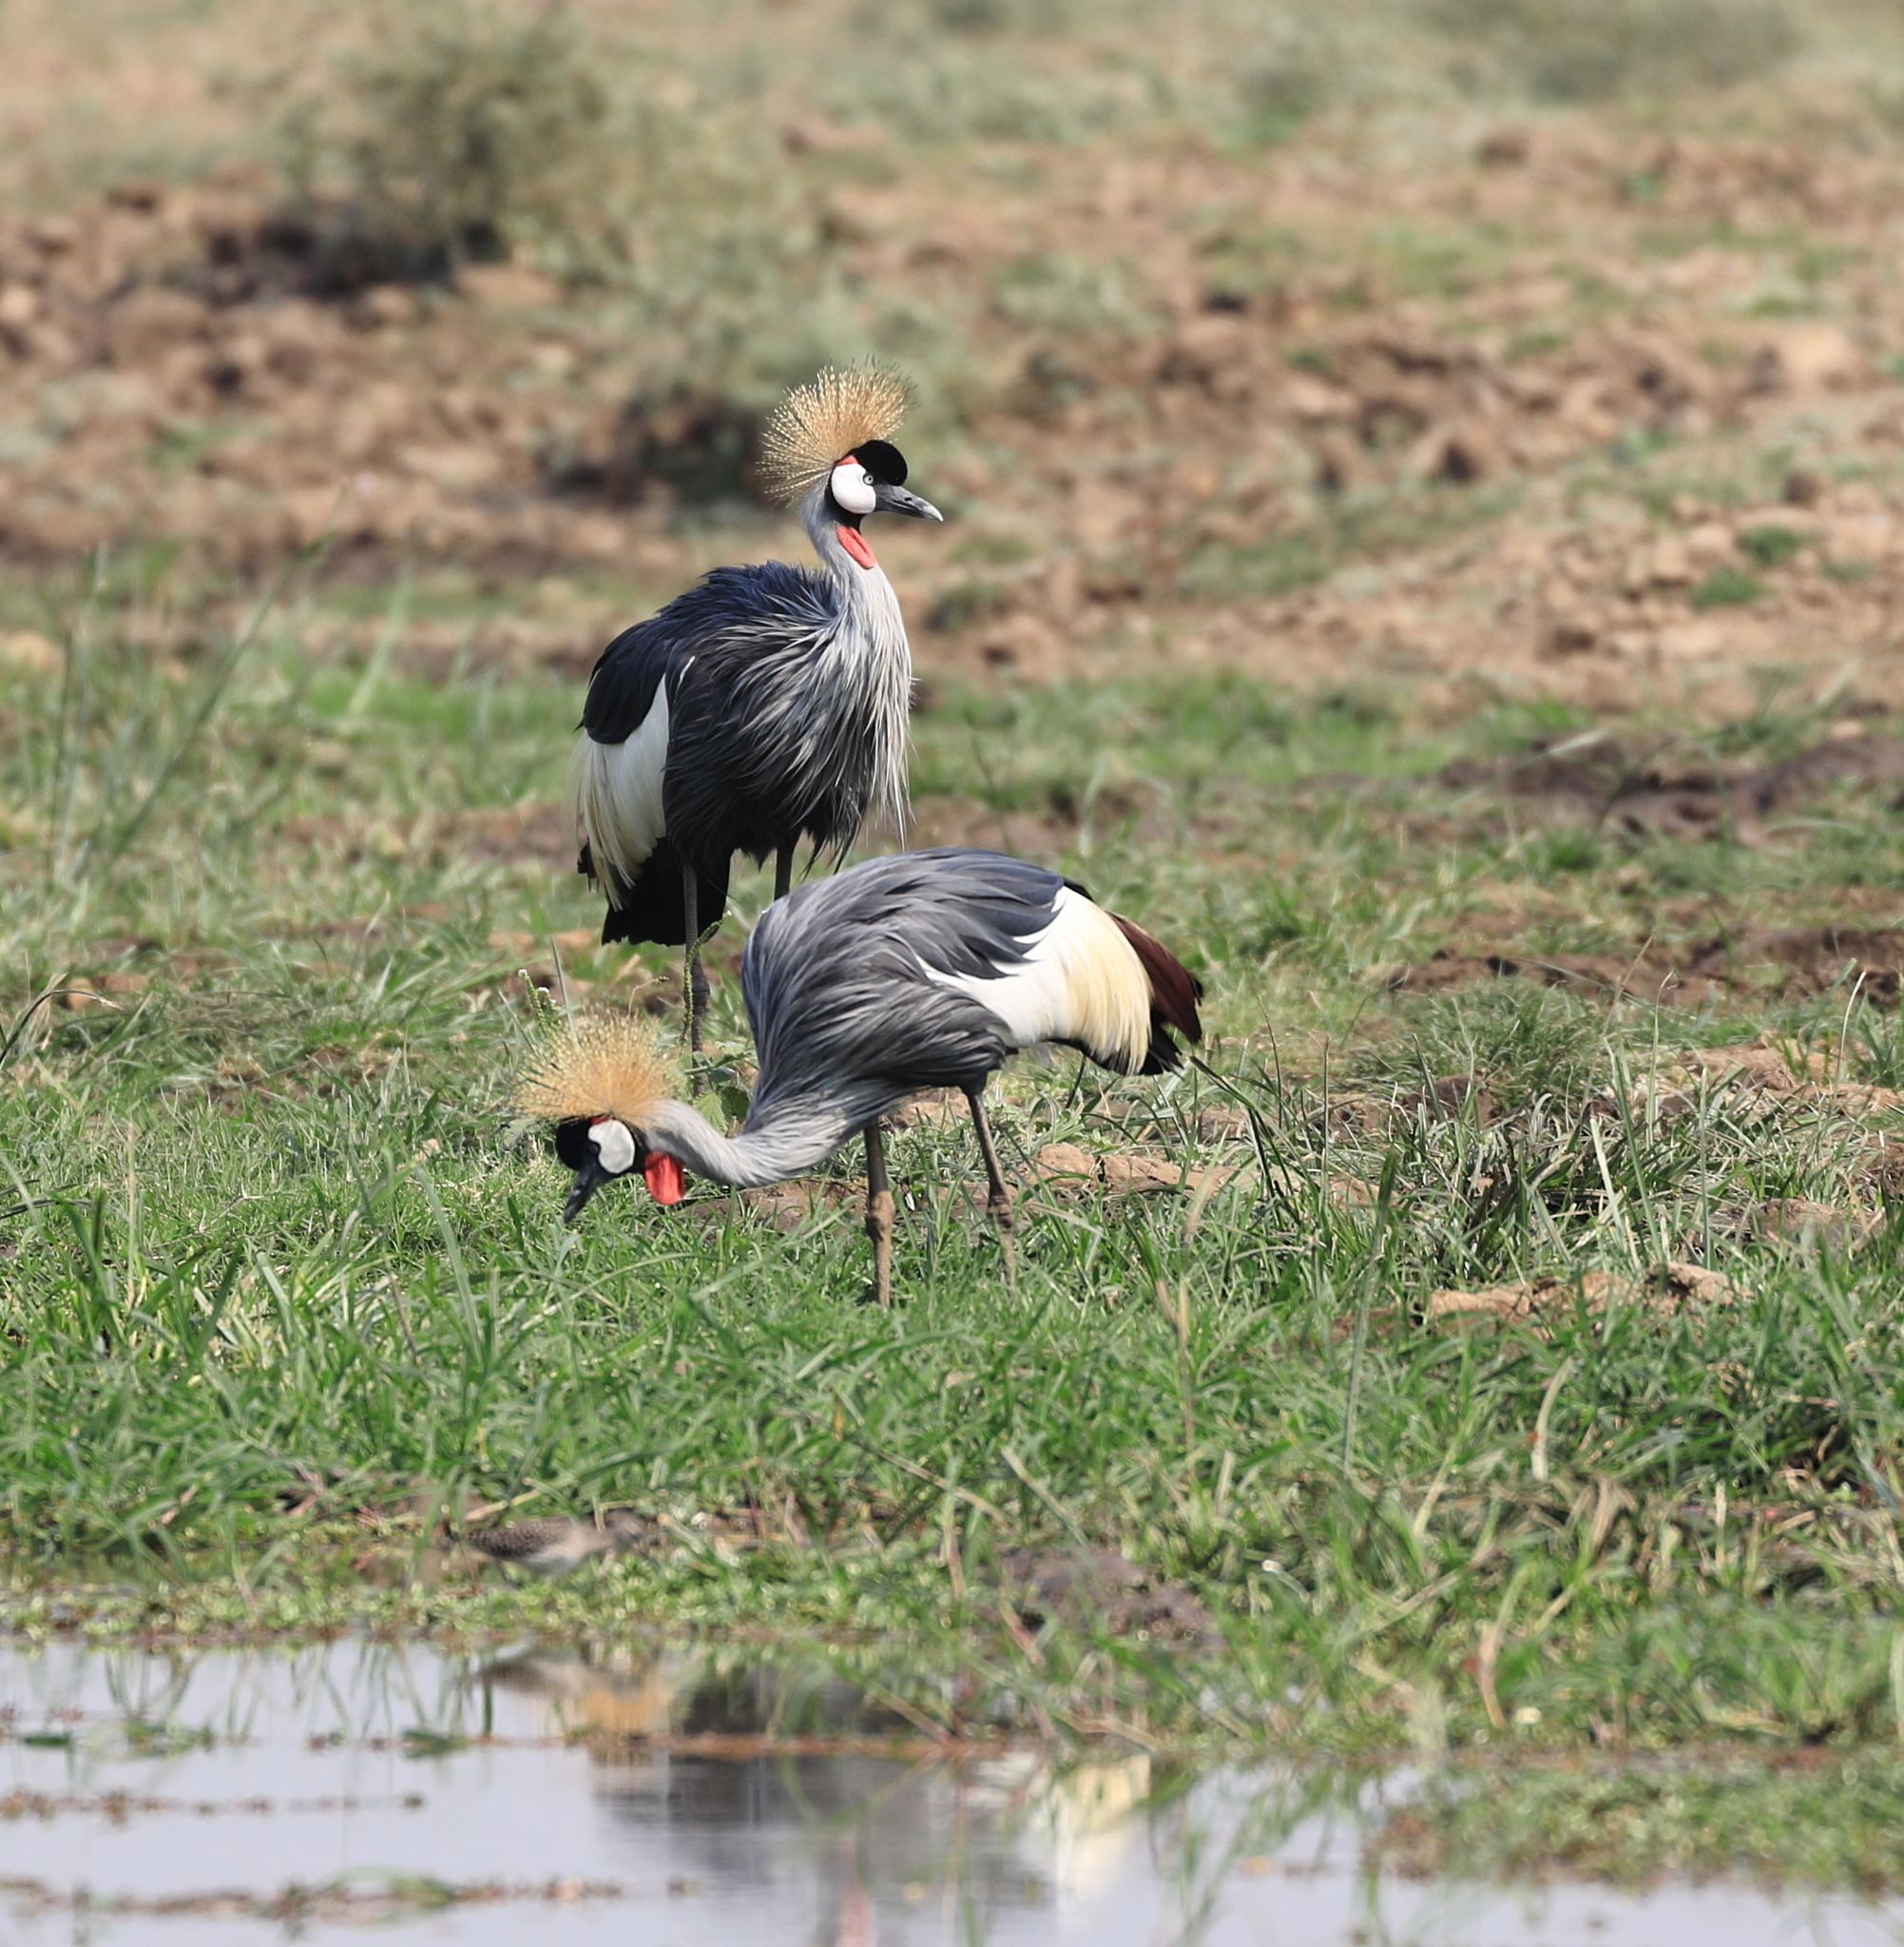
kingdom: Animalia
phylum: Chordata
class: Aves
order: Gruiformes
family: Gruidae
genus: Balearica
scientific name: Balearica regulorum
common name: Grey crowned crane
